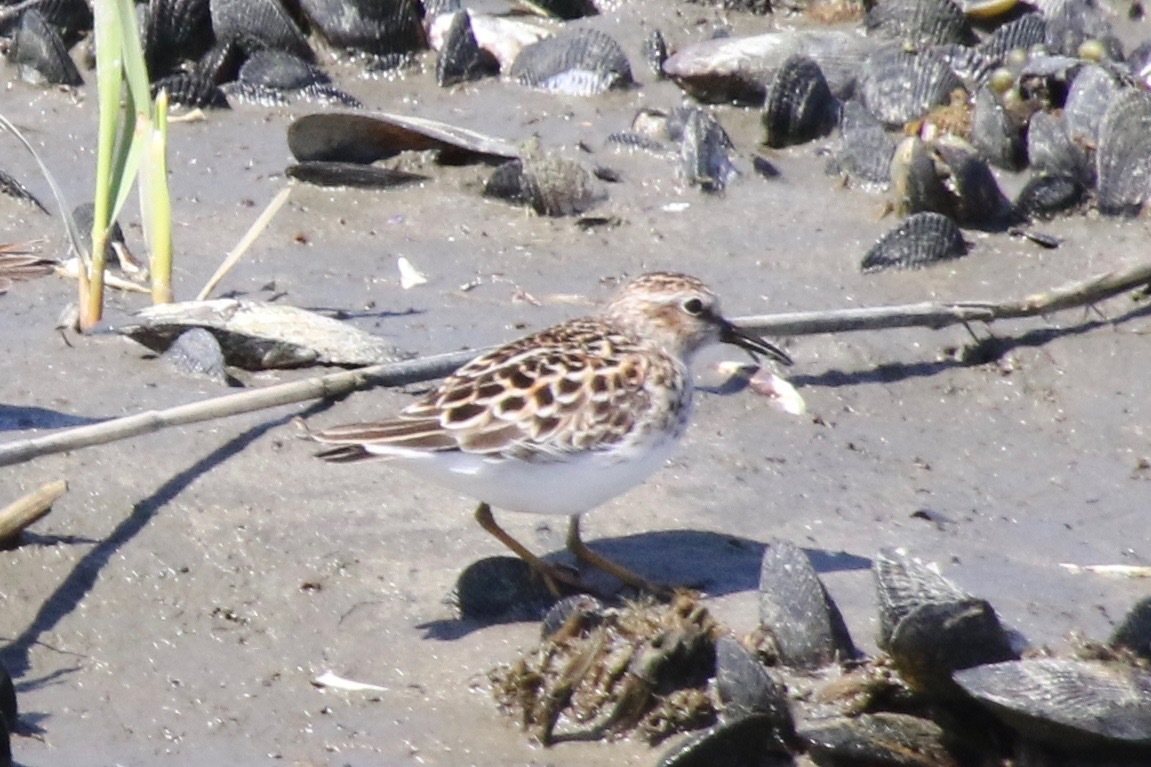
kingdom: Animalia
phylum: Chordata
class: Aves
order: Charadriiformes
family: Scolopacidae
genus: Calidris
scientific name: Calidris minutilla
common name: Least sandpiper
